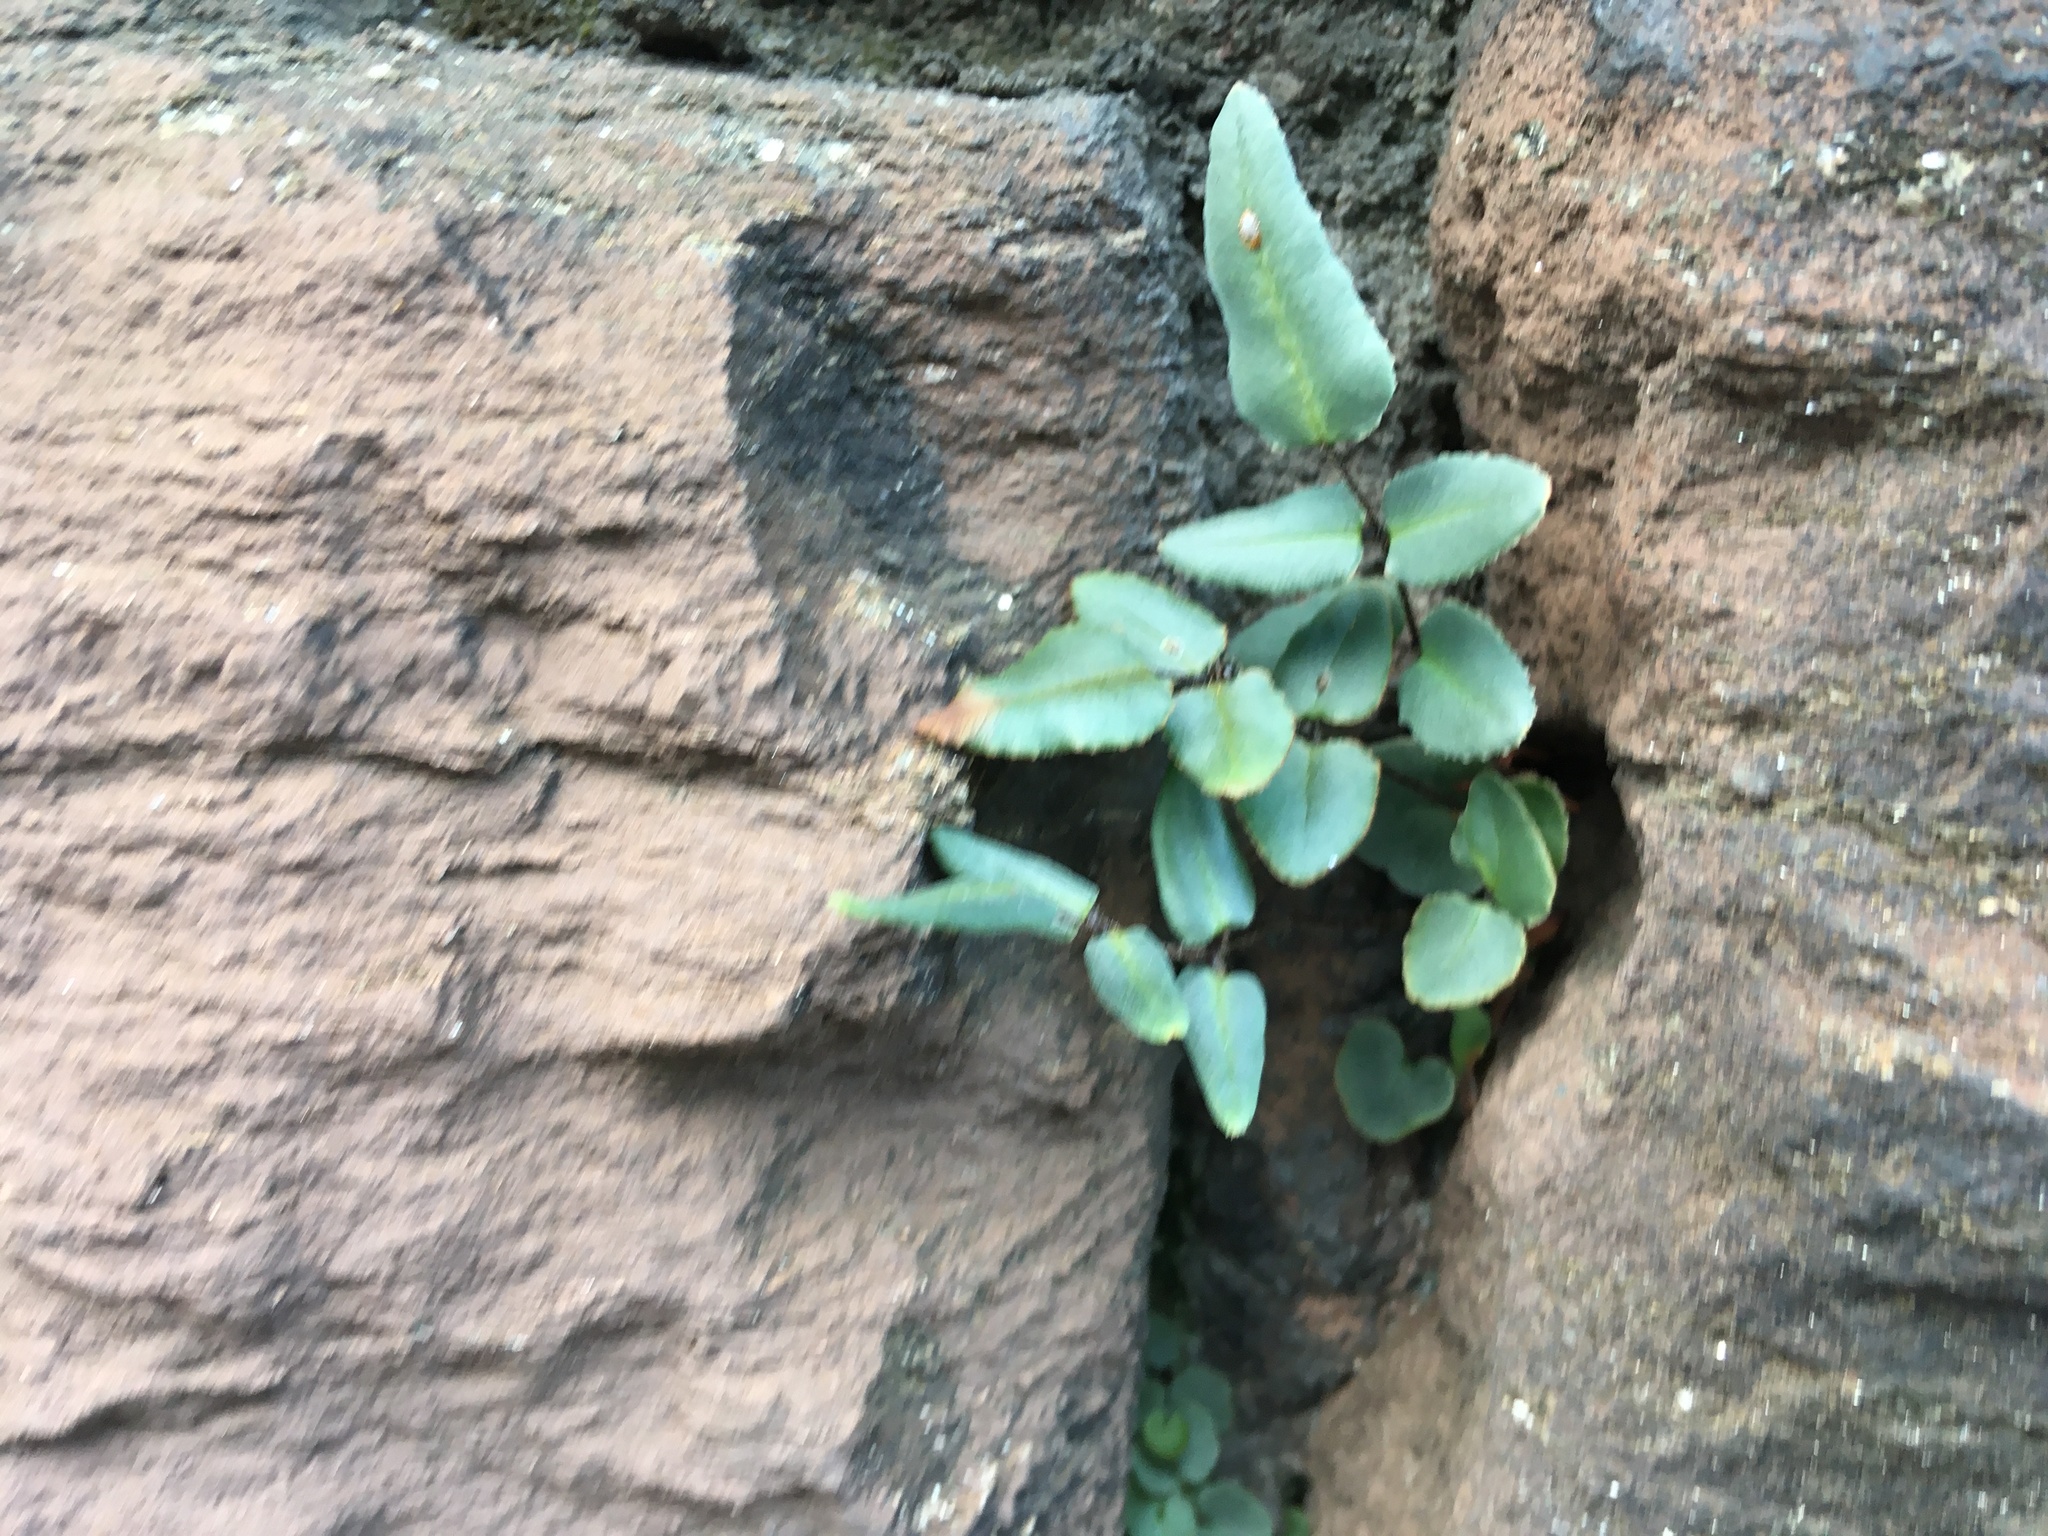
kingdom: Plantae
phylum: Tracheophyta
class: Polypodiopsida
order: Polypodiales
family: Pteridaceae
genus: Pellaea
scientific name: Pellaea atropurpurea
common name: Hairy cliffbrake
